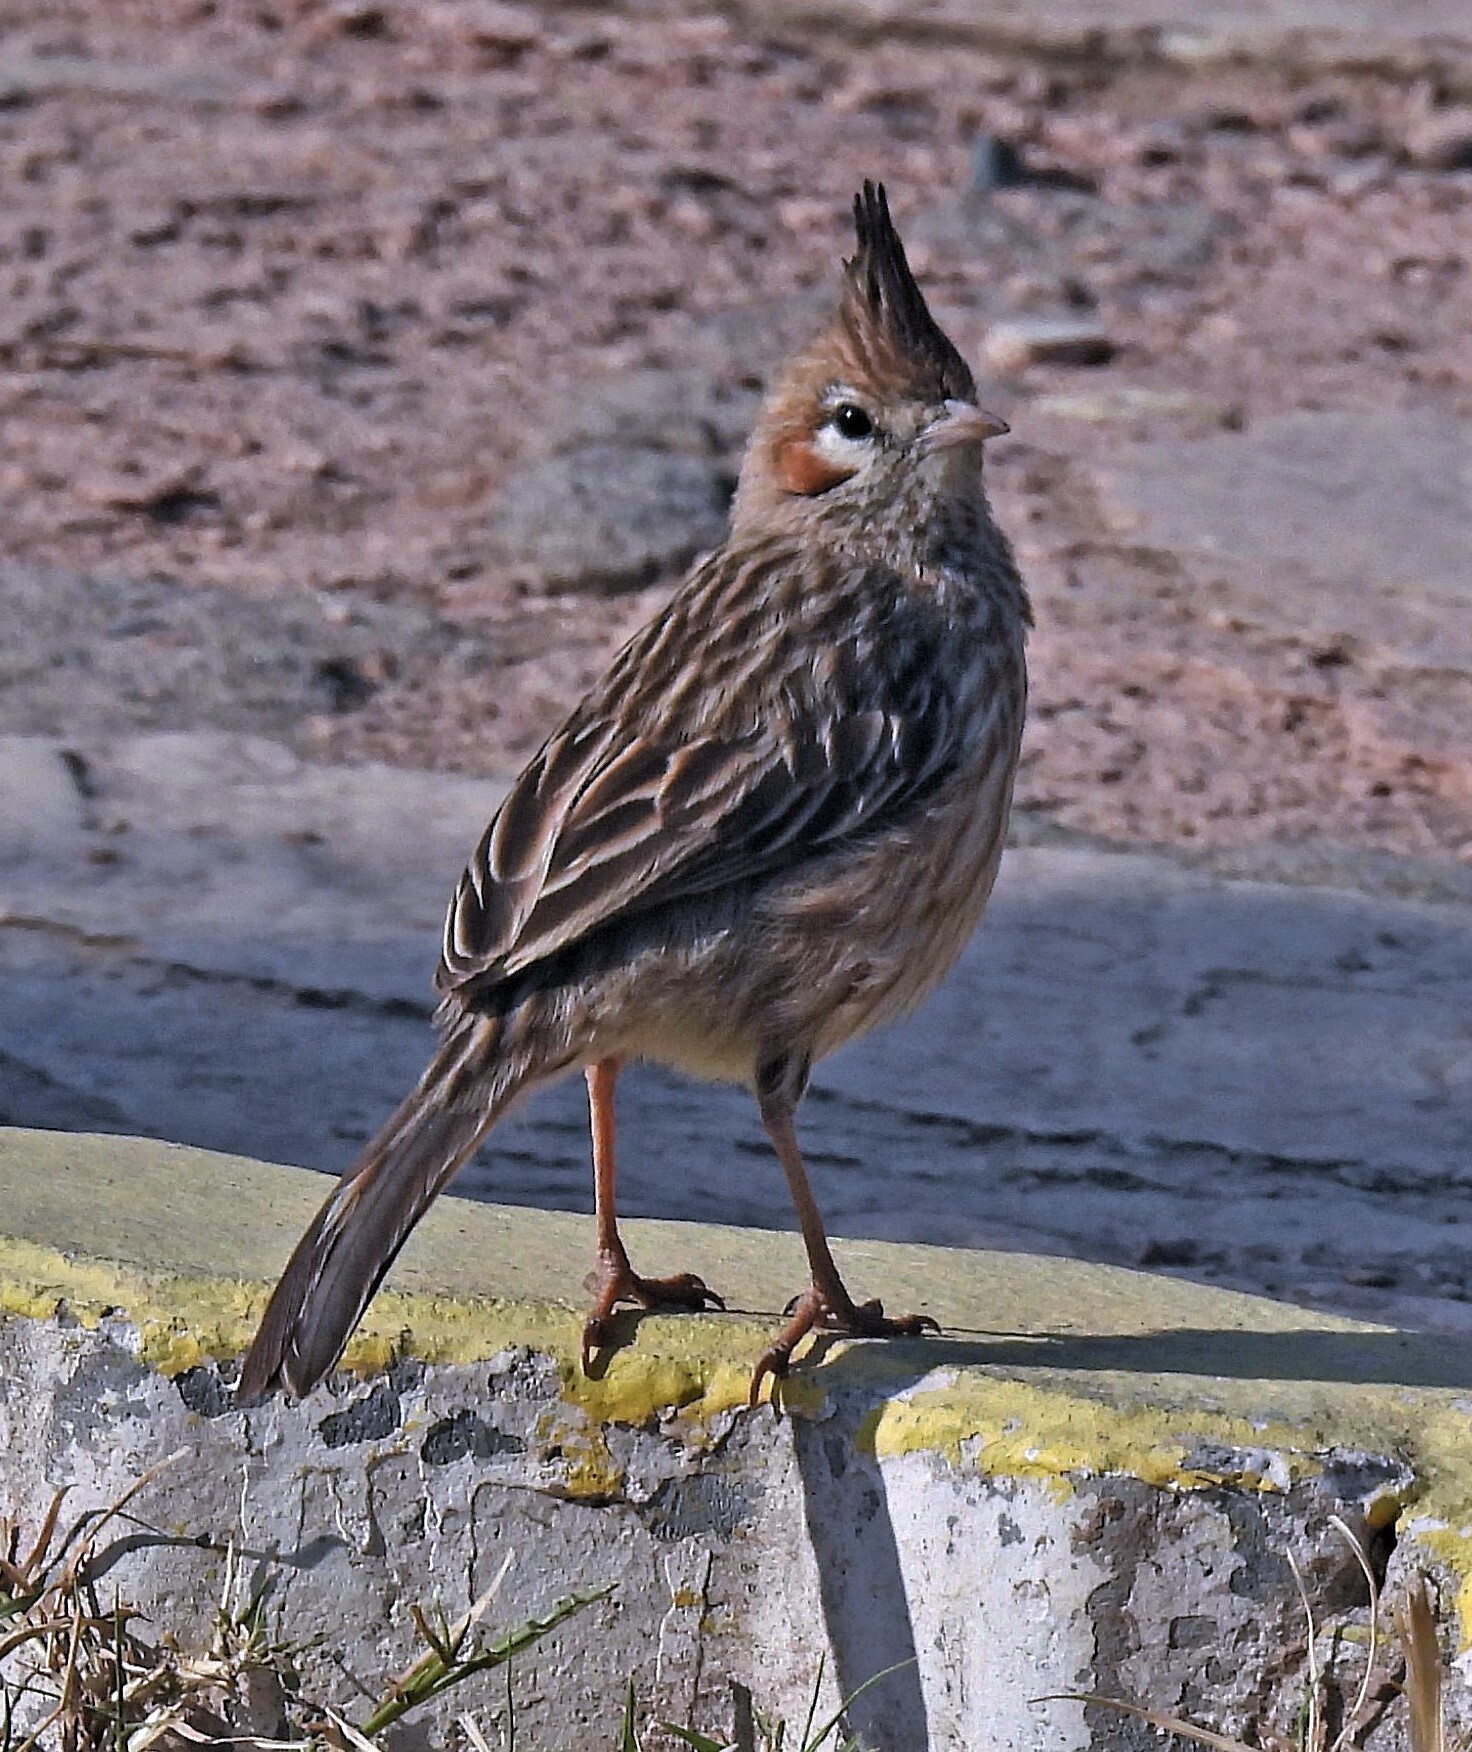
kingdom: Animalia
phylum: Chordata
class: Aves
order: Passeriformes
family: Furnariidae
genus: Coryphistera
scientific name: Coryphistera alaudina
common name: Lark-like brushrunner
